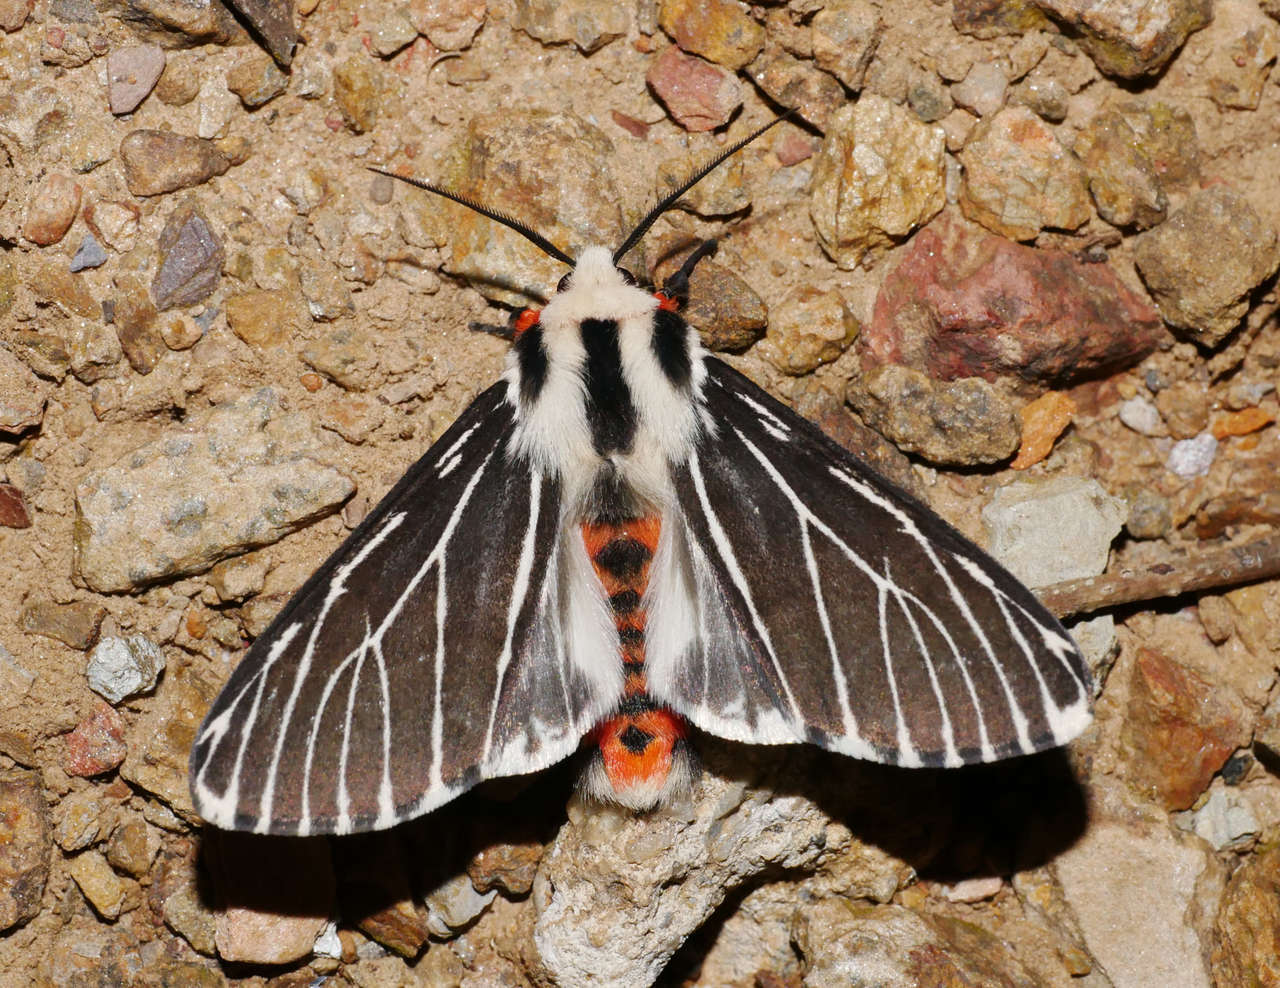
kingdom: Animalia
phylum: Arthropoda
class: Insecta
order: Lepidoptera
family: Erebidae
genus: Ardices
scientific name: Ardices glatignyi
